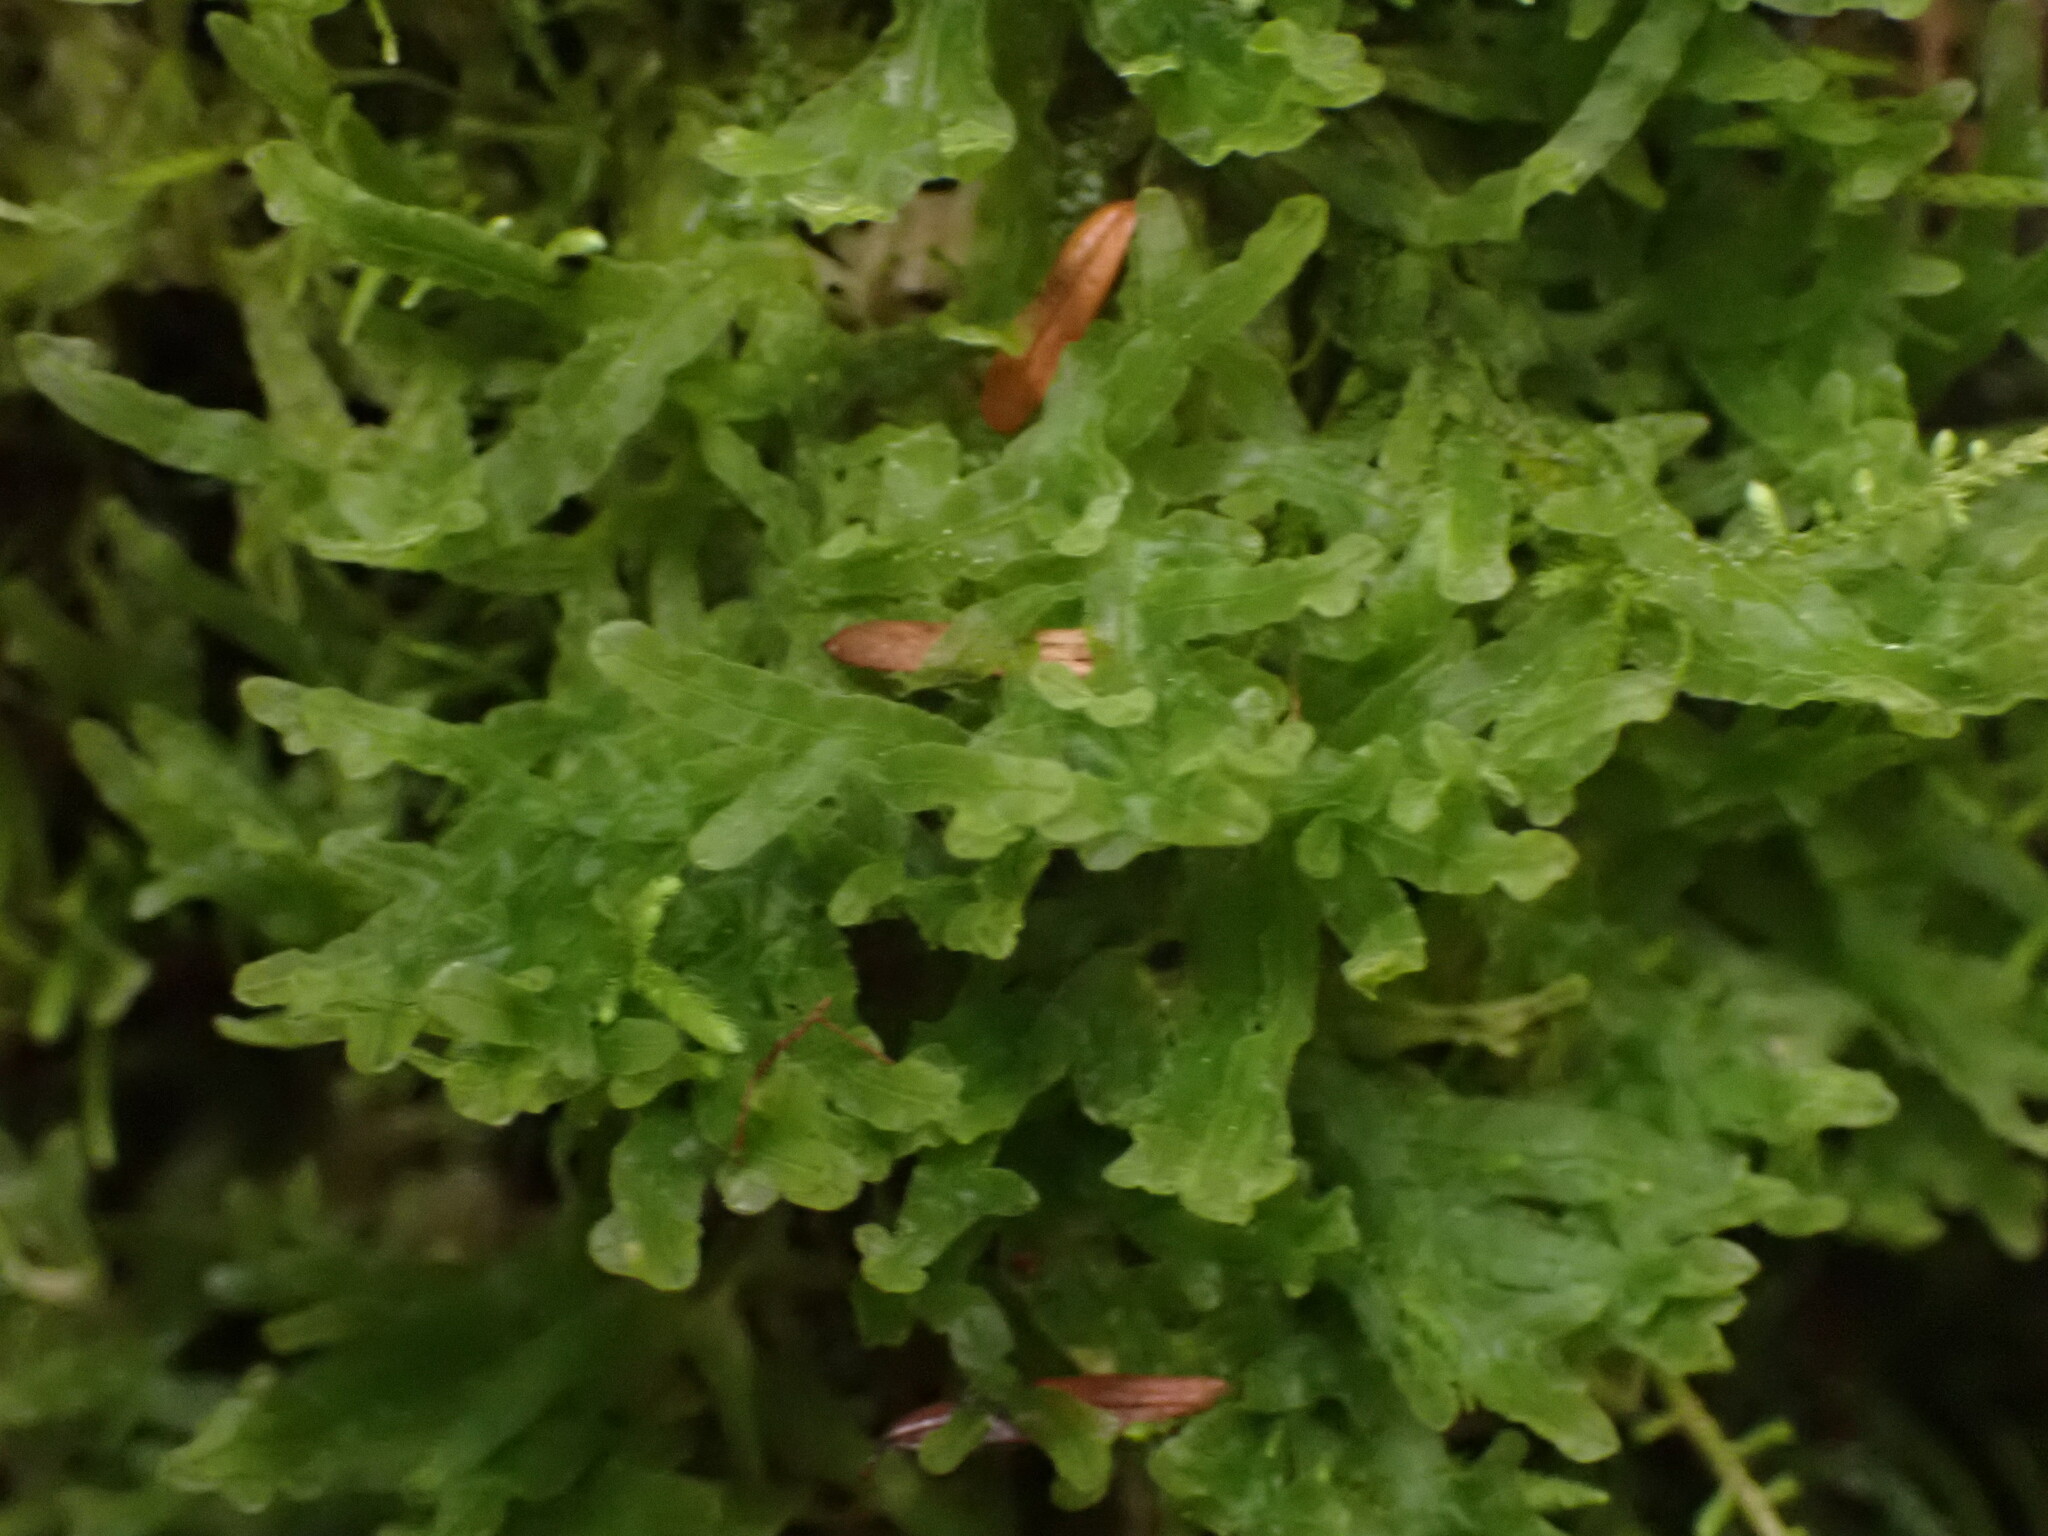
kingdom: Plantae
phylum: Marchantiophyta
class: Jungermanniopsida
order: Metzgeriales
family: Metzgeriaceae
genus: Metzgeria
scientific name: Metzgeria pubescens
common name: Downy veilwort
